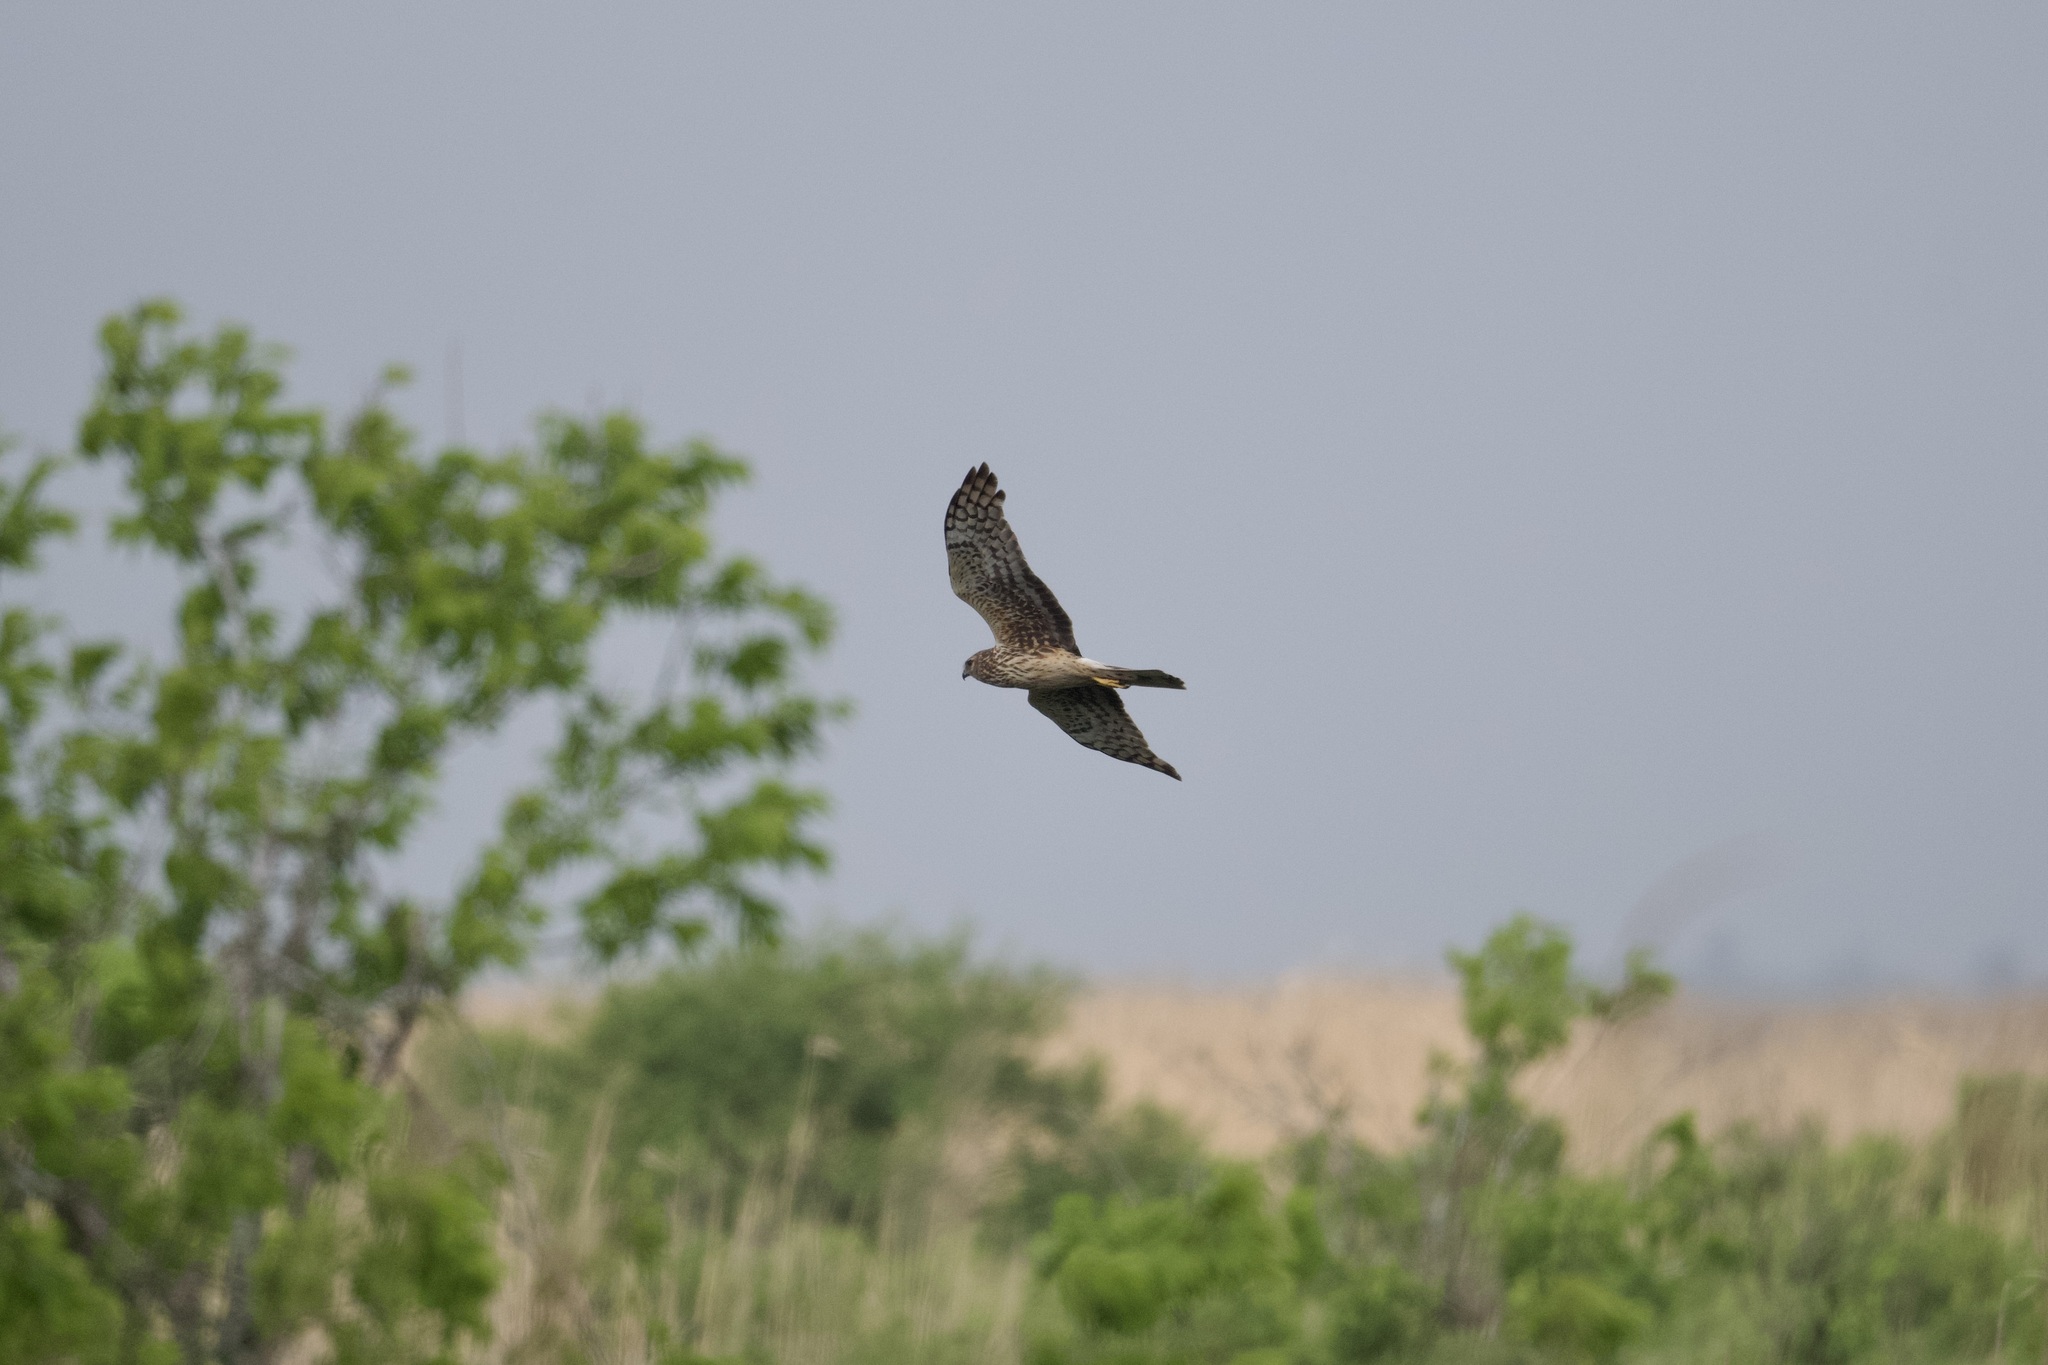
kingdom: Animalia
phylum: Chordata
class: Aves
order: Accipitriformes
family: Accipitridae
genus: Circus
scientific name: Circus cyaneus
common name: Hen harrier
